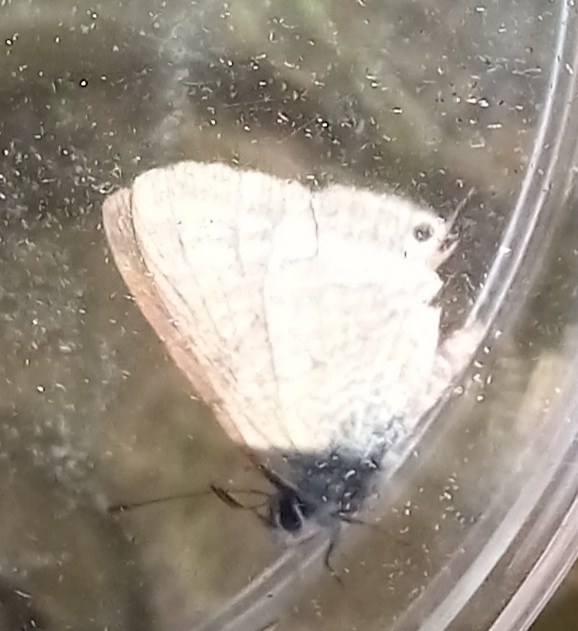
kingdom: Animalia
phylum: Arthropoda
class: Insecta
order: Lepidoptera
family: Lycaenidae
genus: Lampides
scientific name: Lampides boeticus
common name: Long-tailed blue
